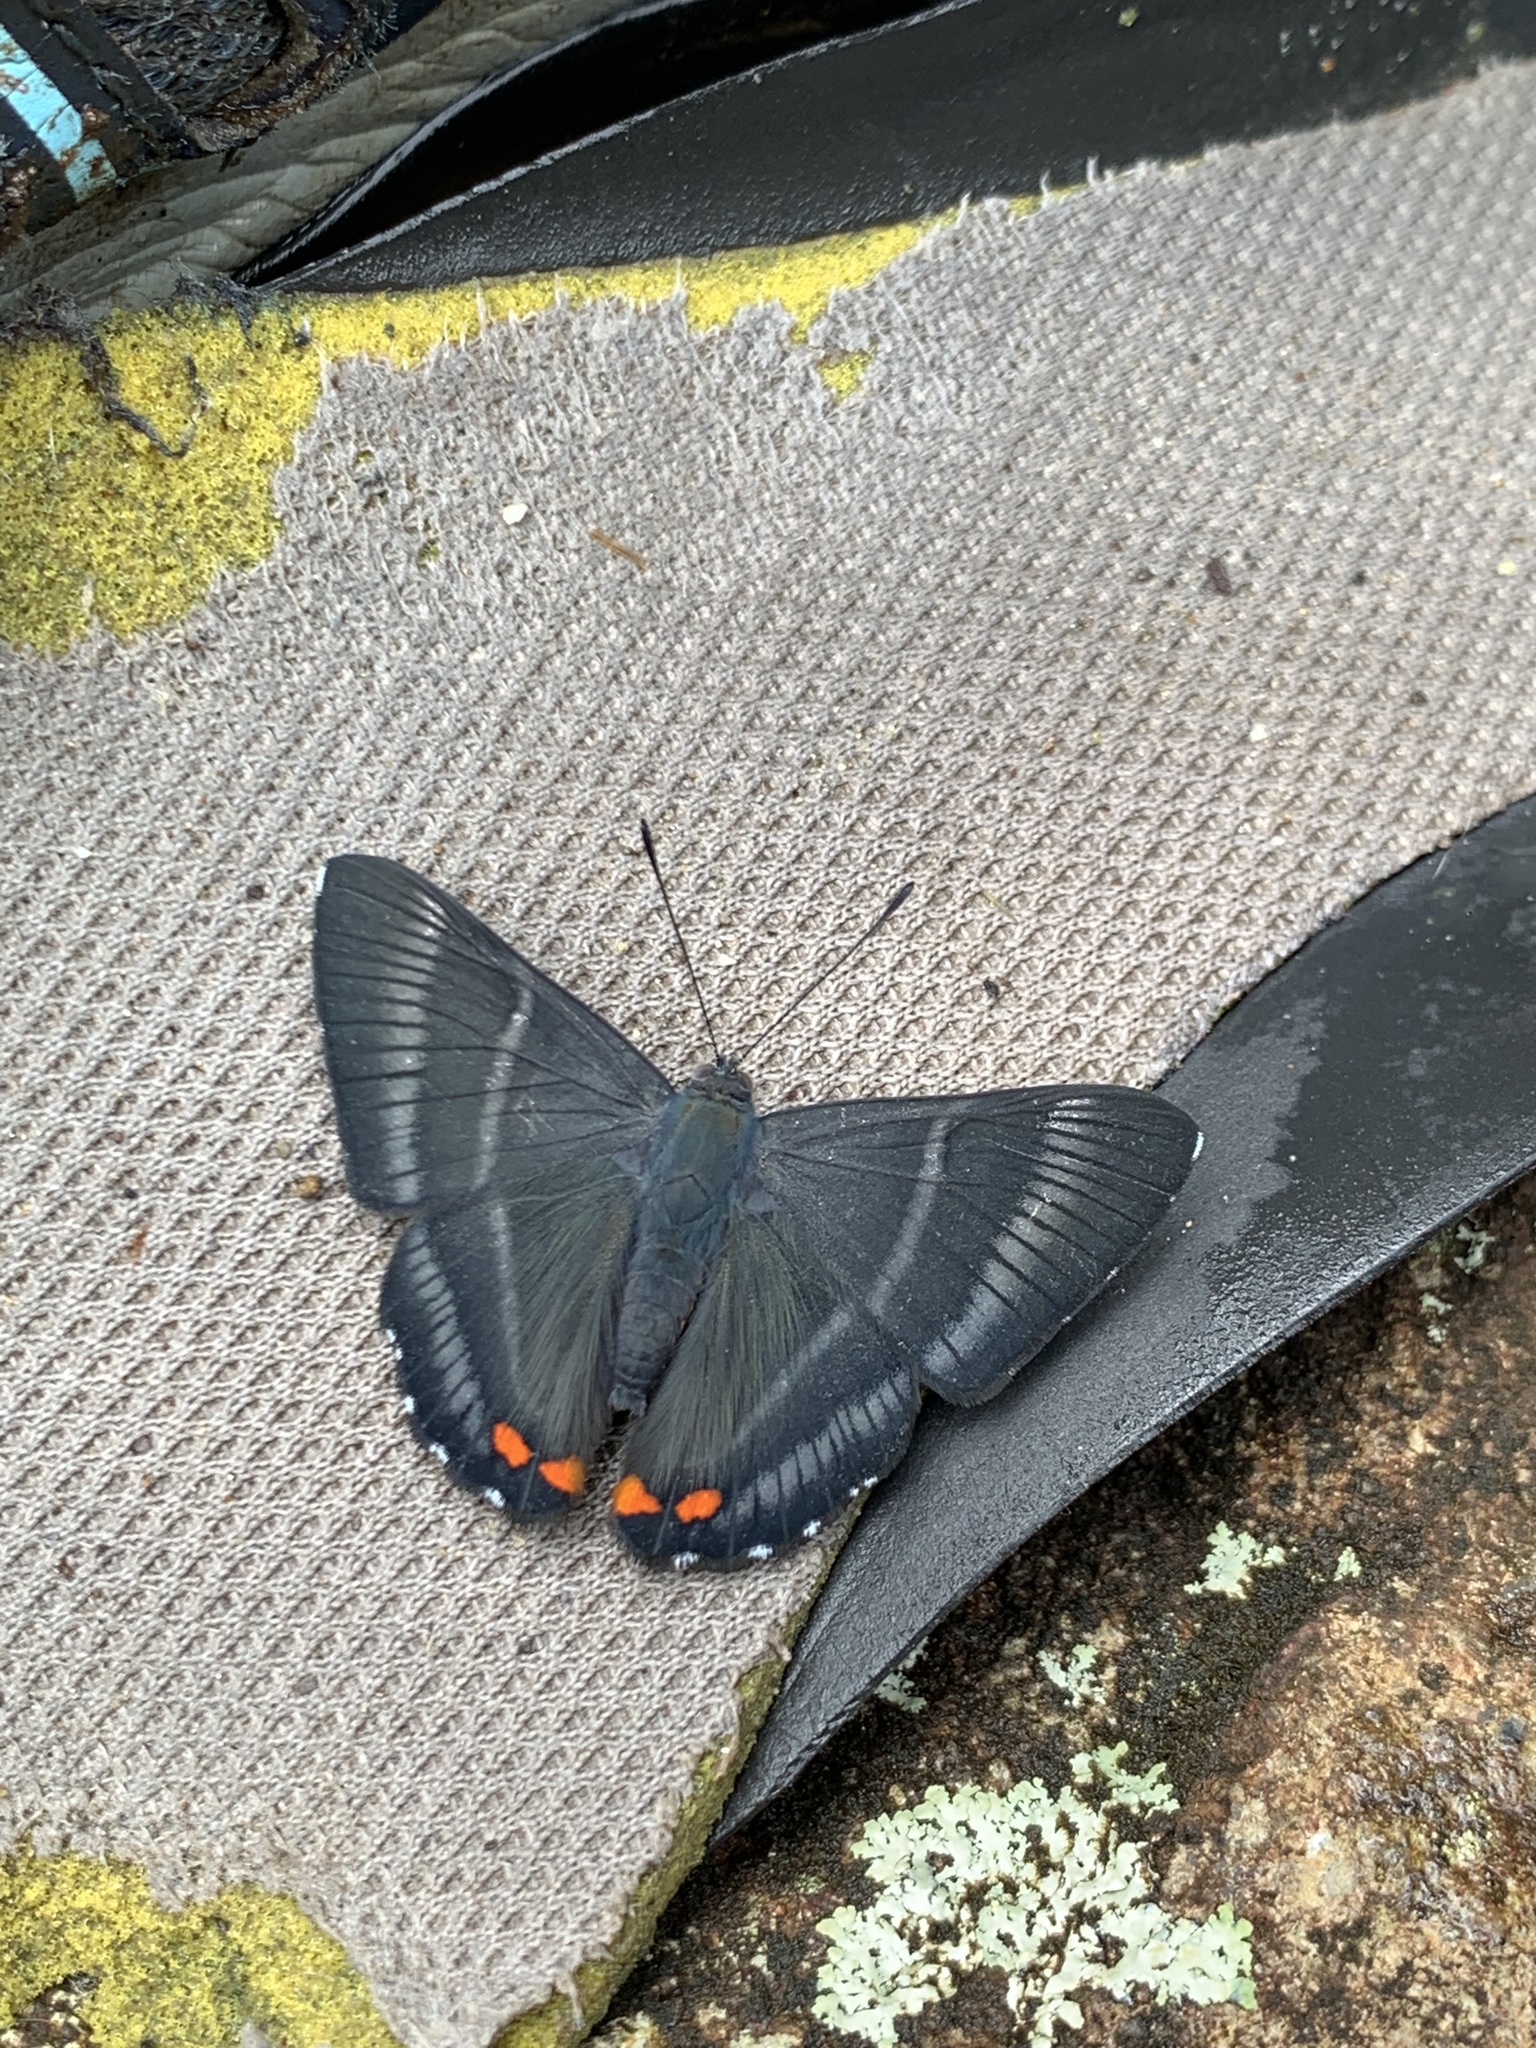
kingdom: Animalia
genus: Siseme
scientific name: Siseme aristoteles
